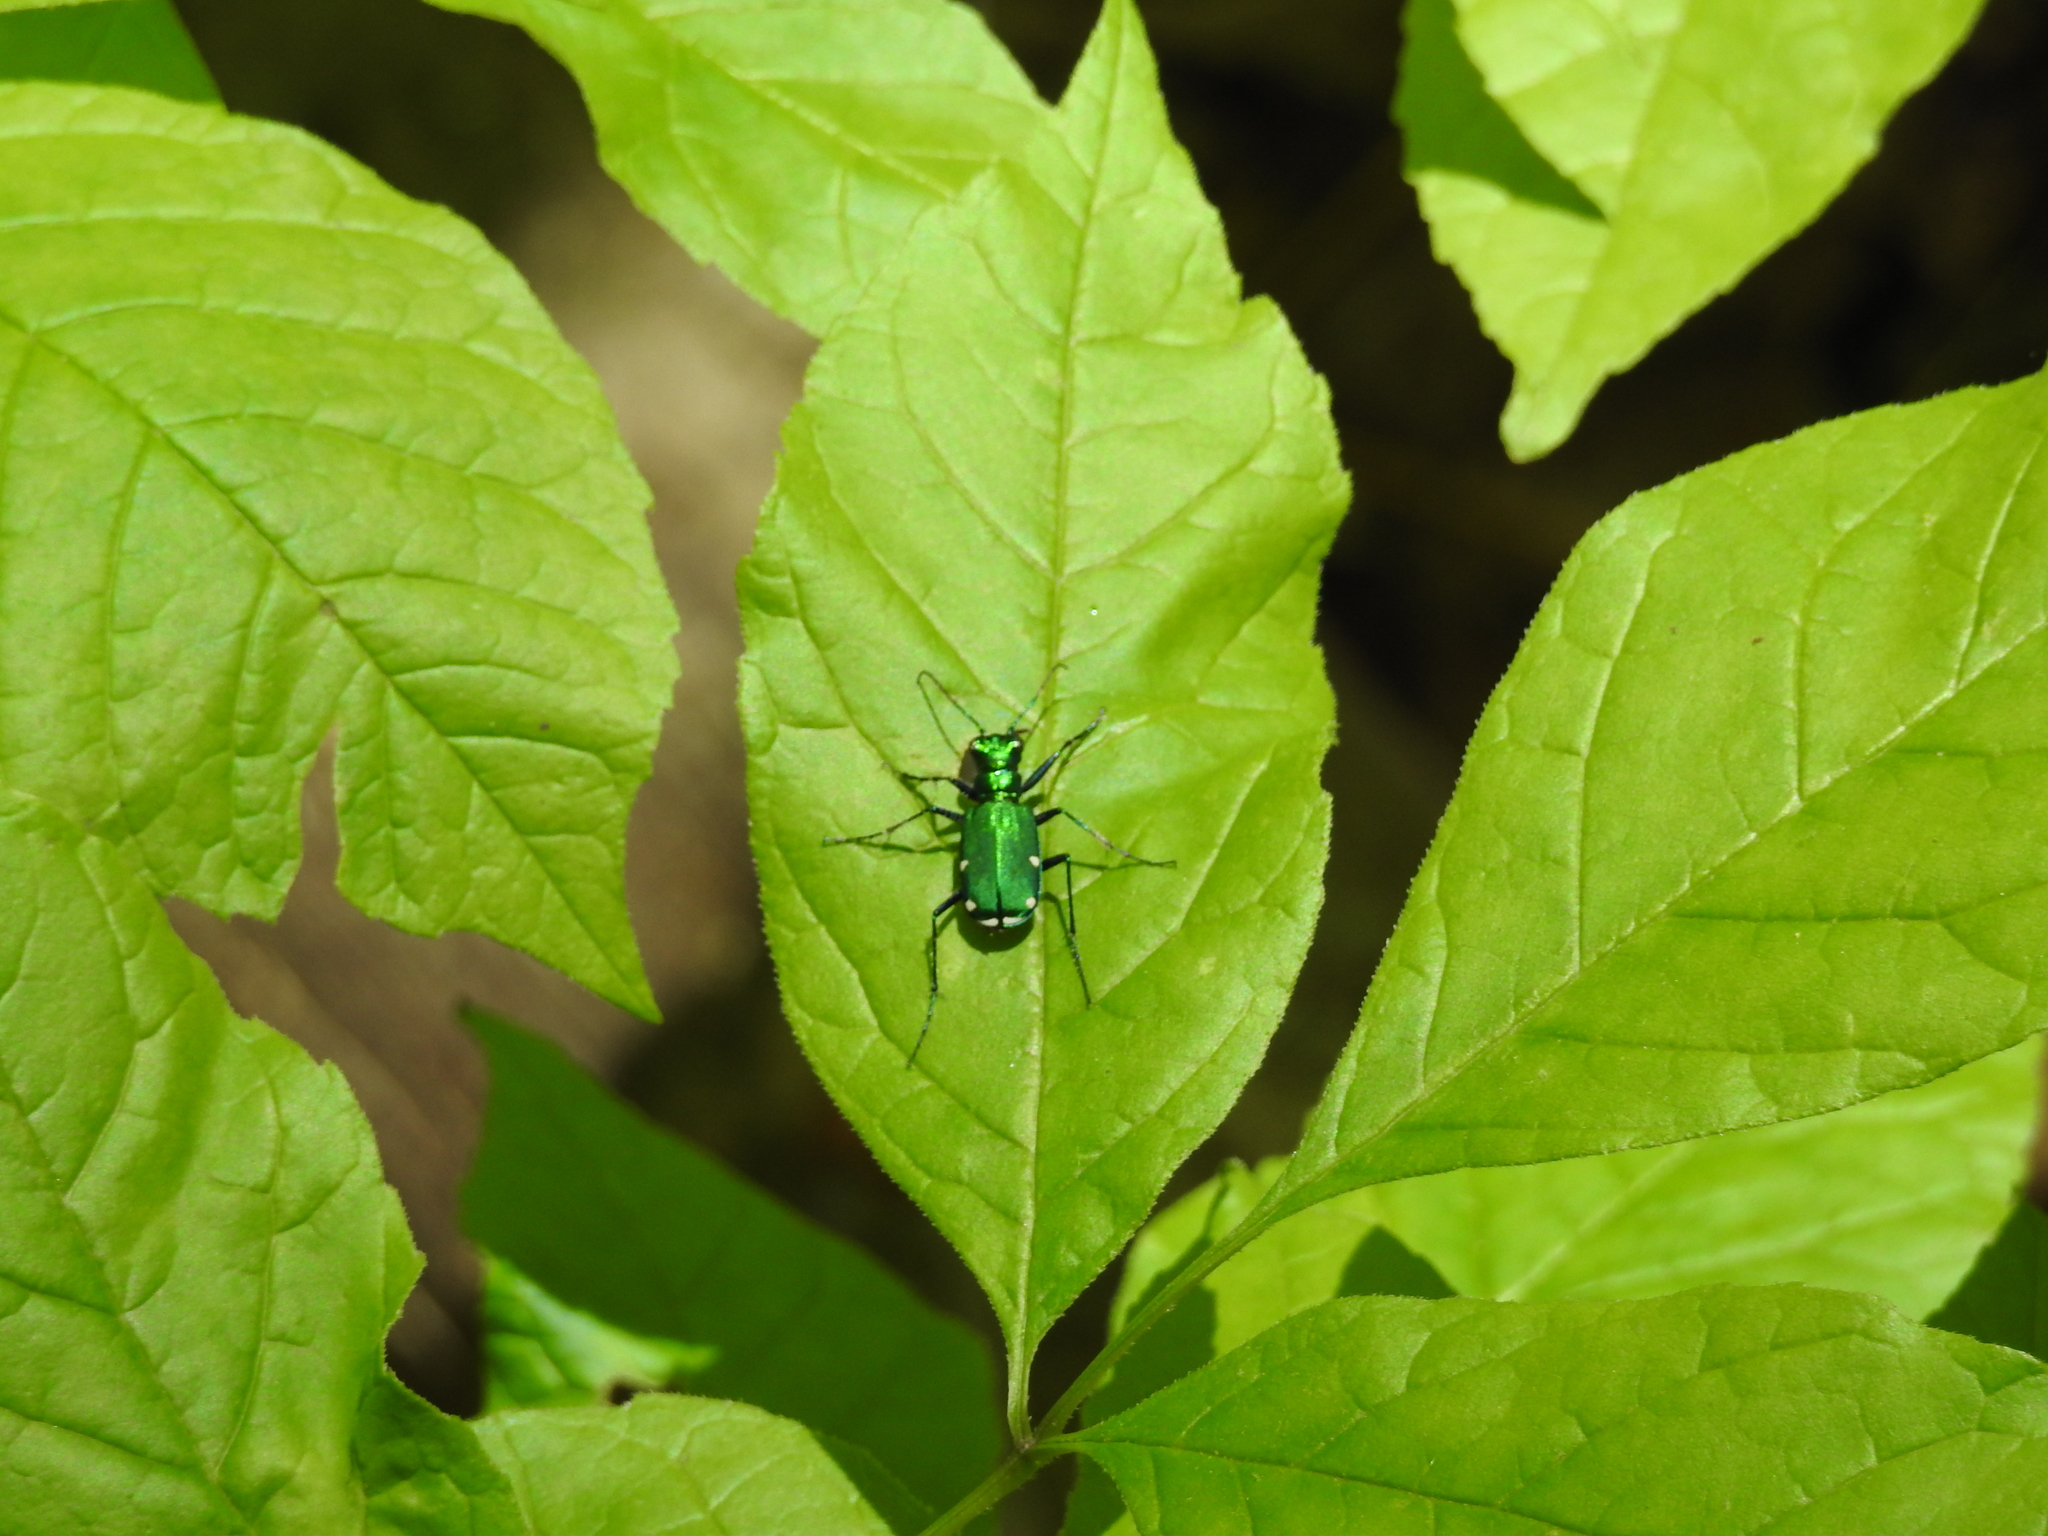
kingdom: Animalia
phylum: Arthropoda
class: Insecta
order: Coleoptera
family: Carabidae
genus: Cicindela
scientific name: Cicindela sexguttata
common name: Six-spotted tiger beetle
